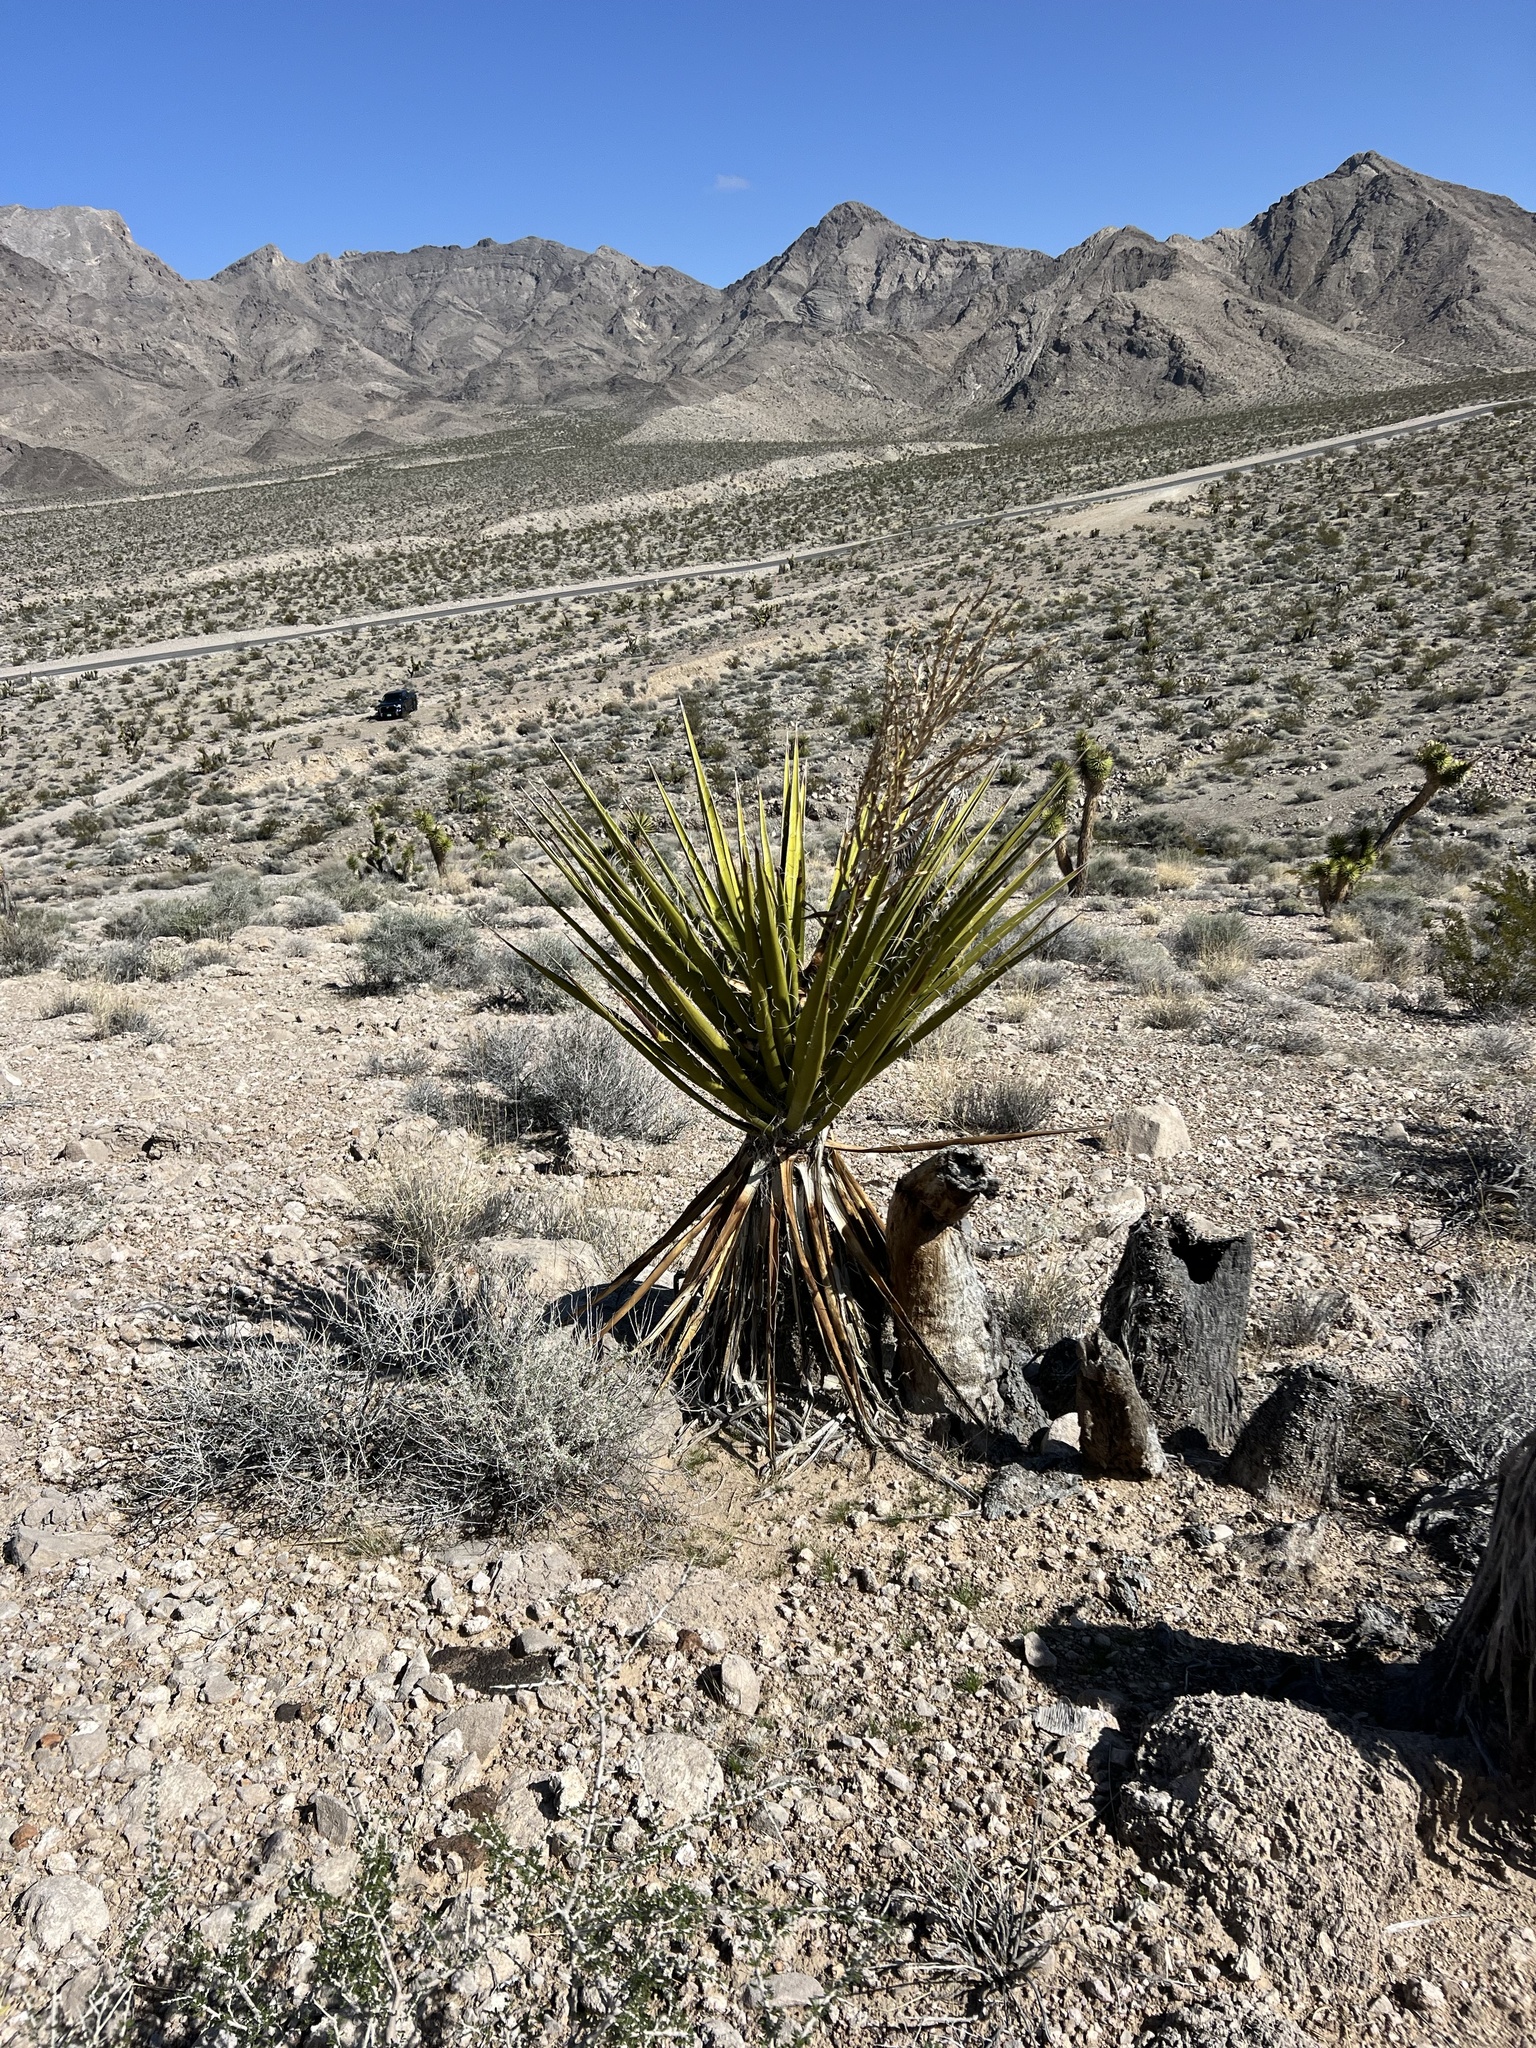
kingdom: Plantae
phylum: Tracheophyta
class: Liliopsida
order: Asparagales
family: Asparagaceae
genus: Yucca
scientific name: Yucca schidigera
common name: Mojave yucca
